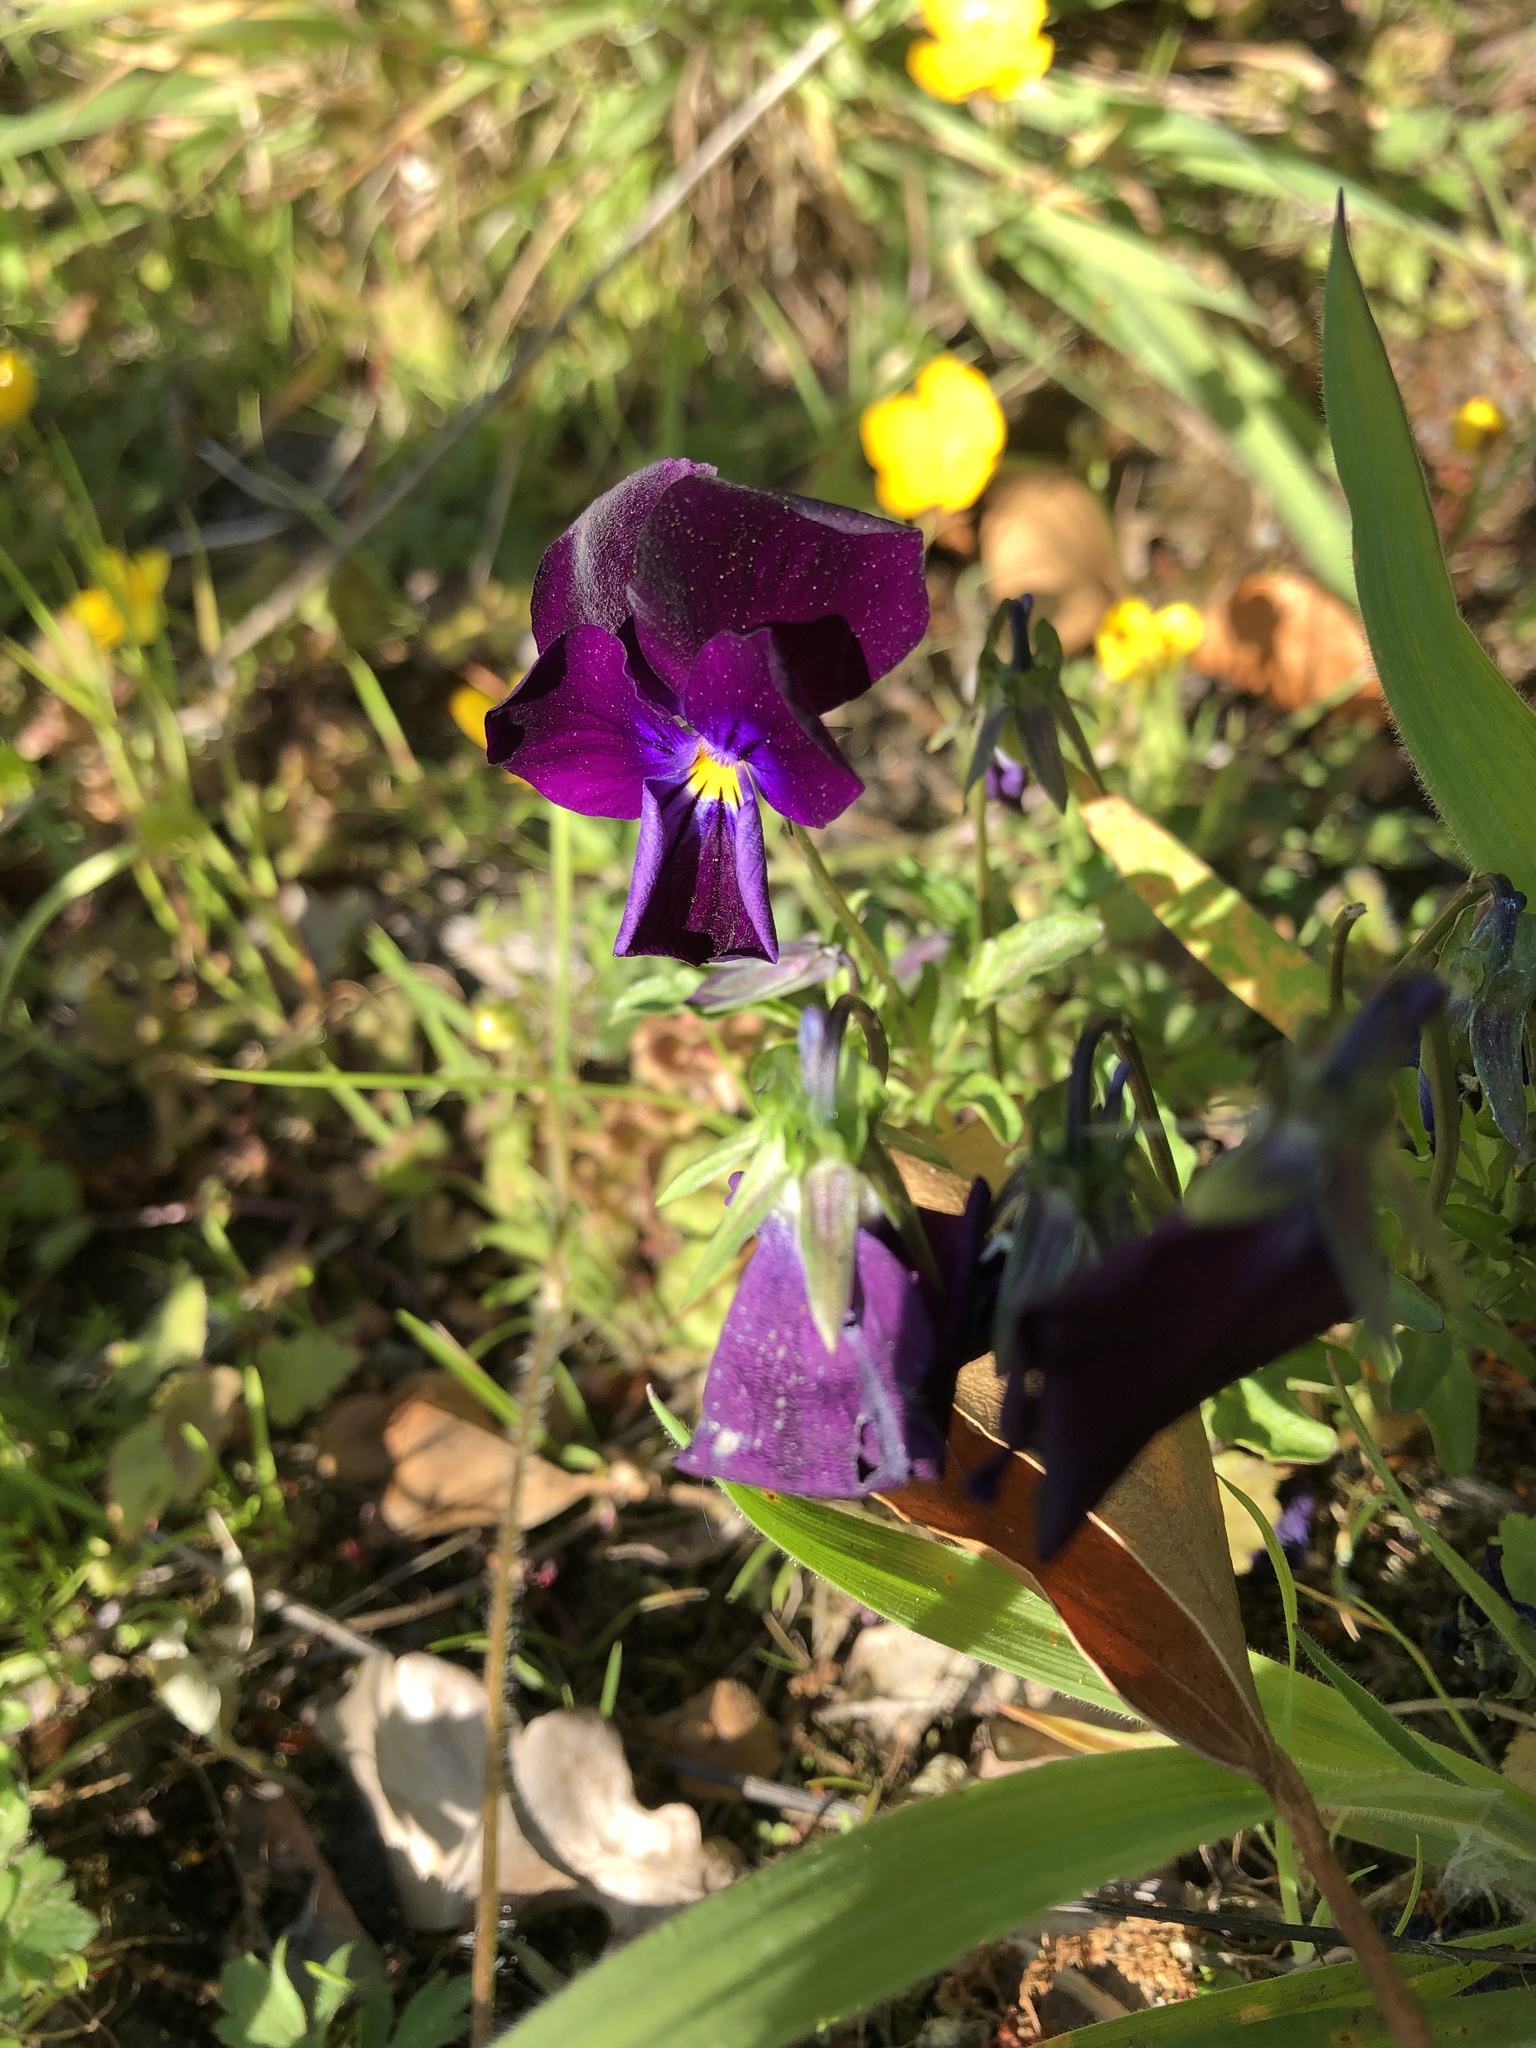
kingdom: Plantae
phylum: Tracheophyta
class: Magnoliopsida
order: Malpighiales
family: Violaceae
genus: Viola
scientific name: Viola wittrockiana
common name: Garden pansy
